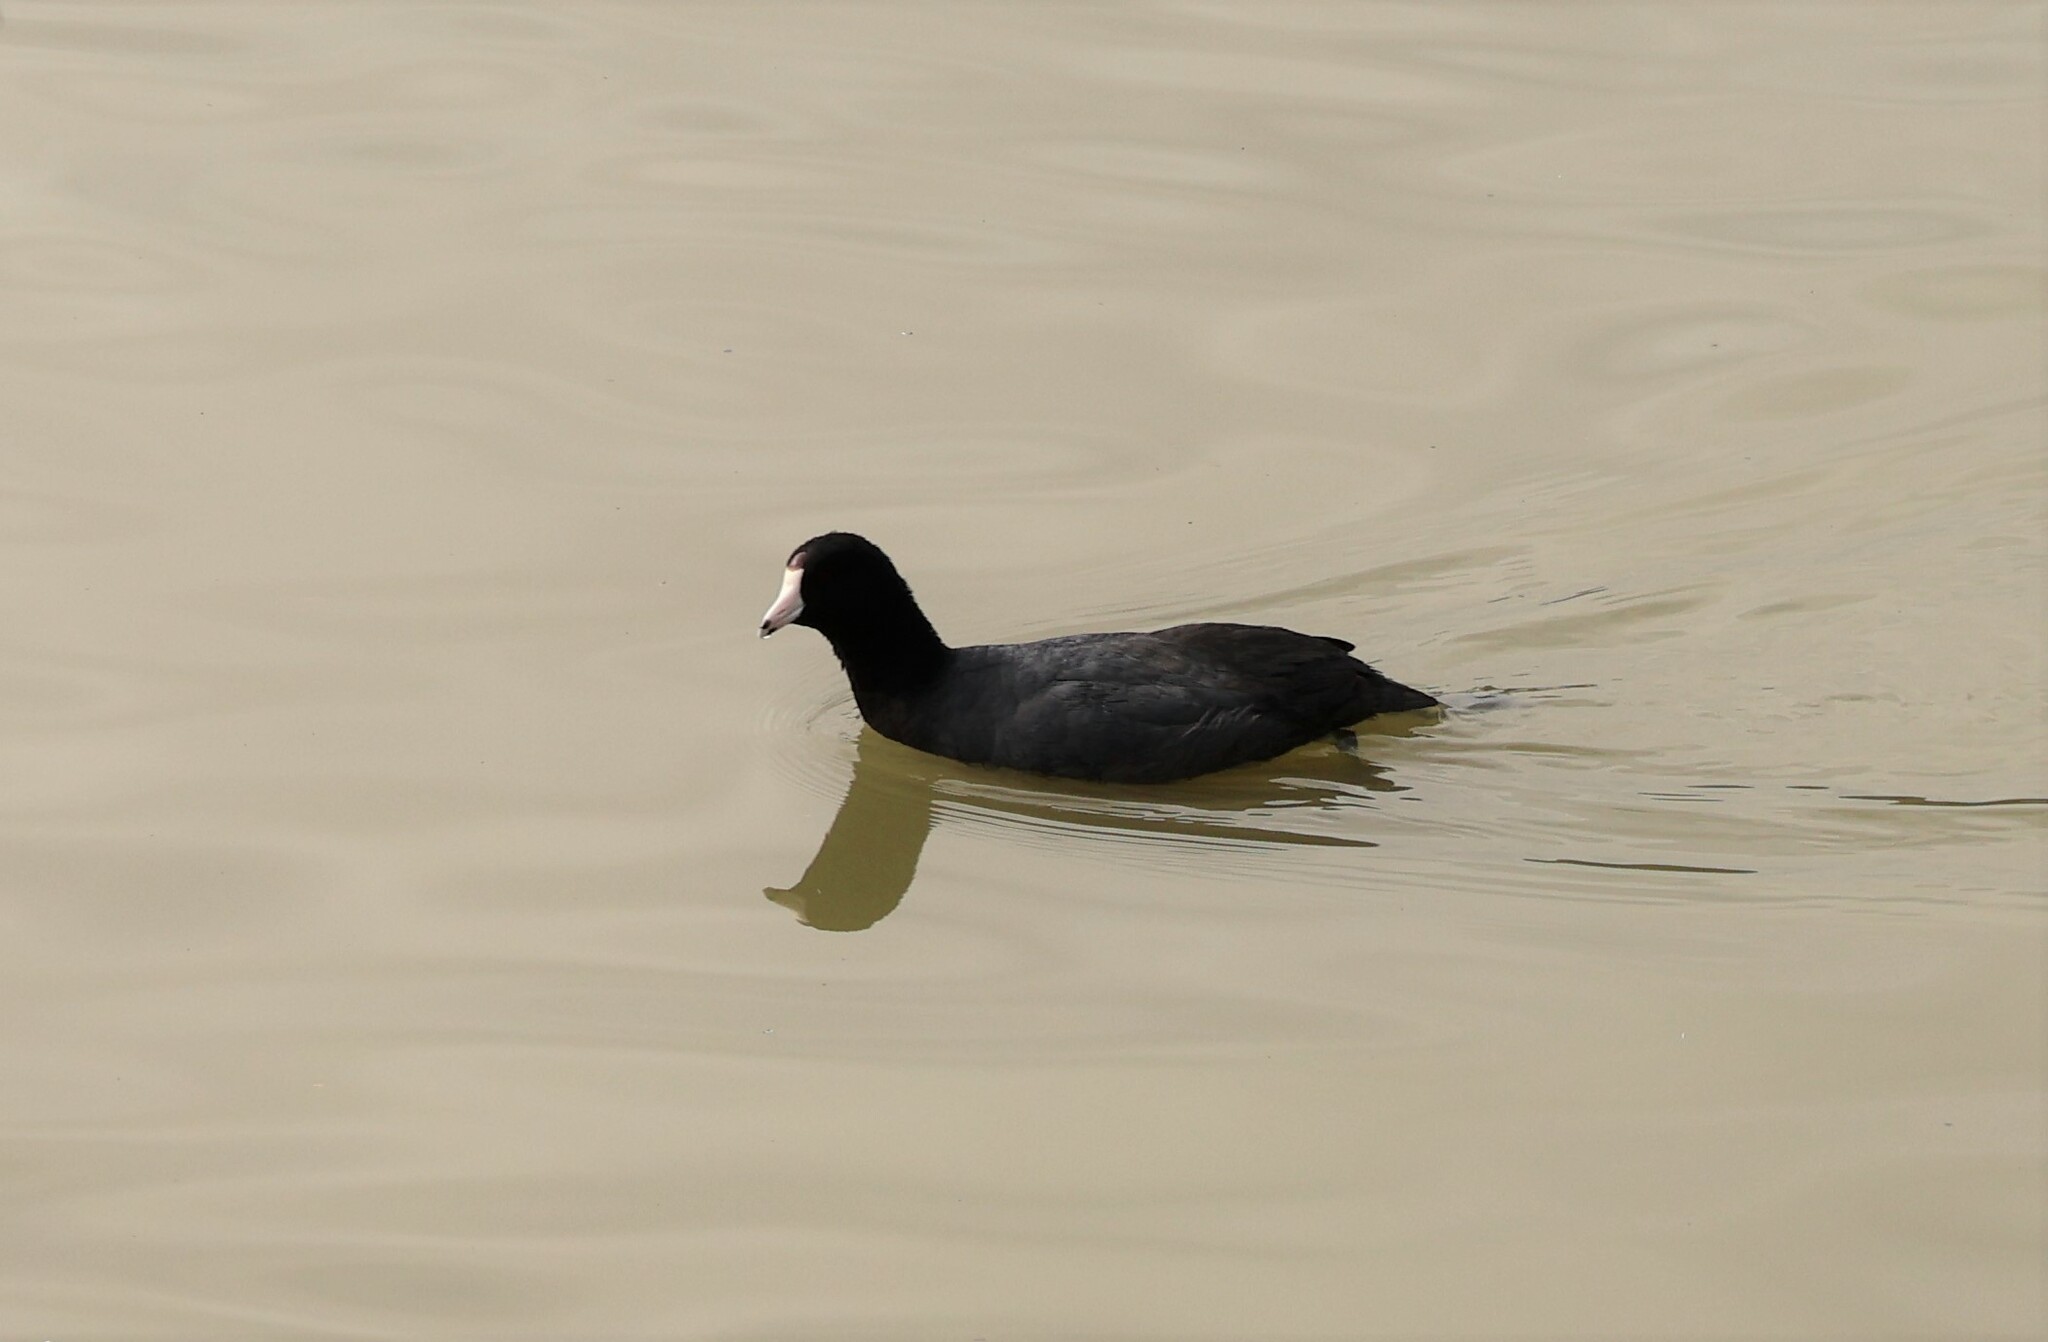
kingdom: Animalia
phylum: Chordata
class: Aves
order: Gruiformes
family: Rallidae
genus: Fulica
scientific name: Fulica americana
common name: American coot
